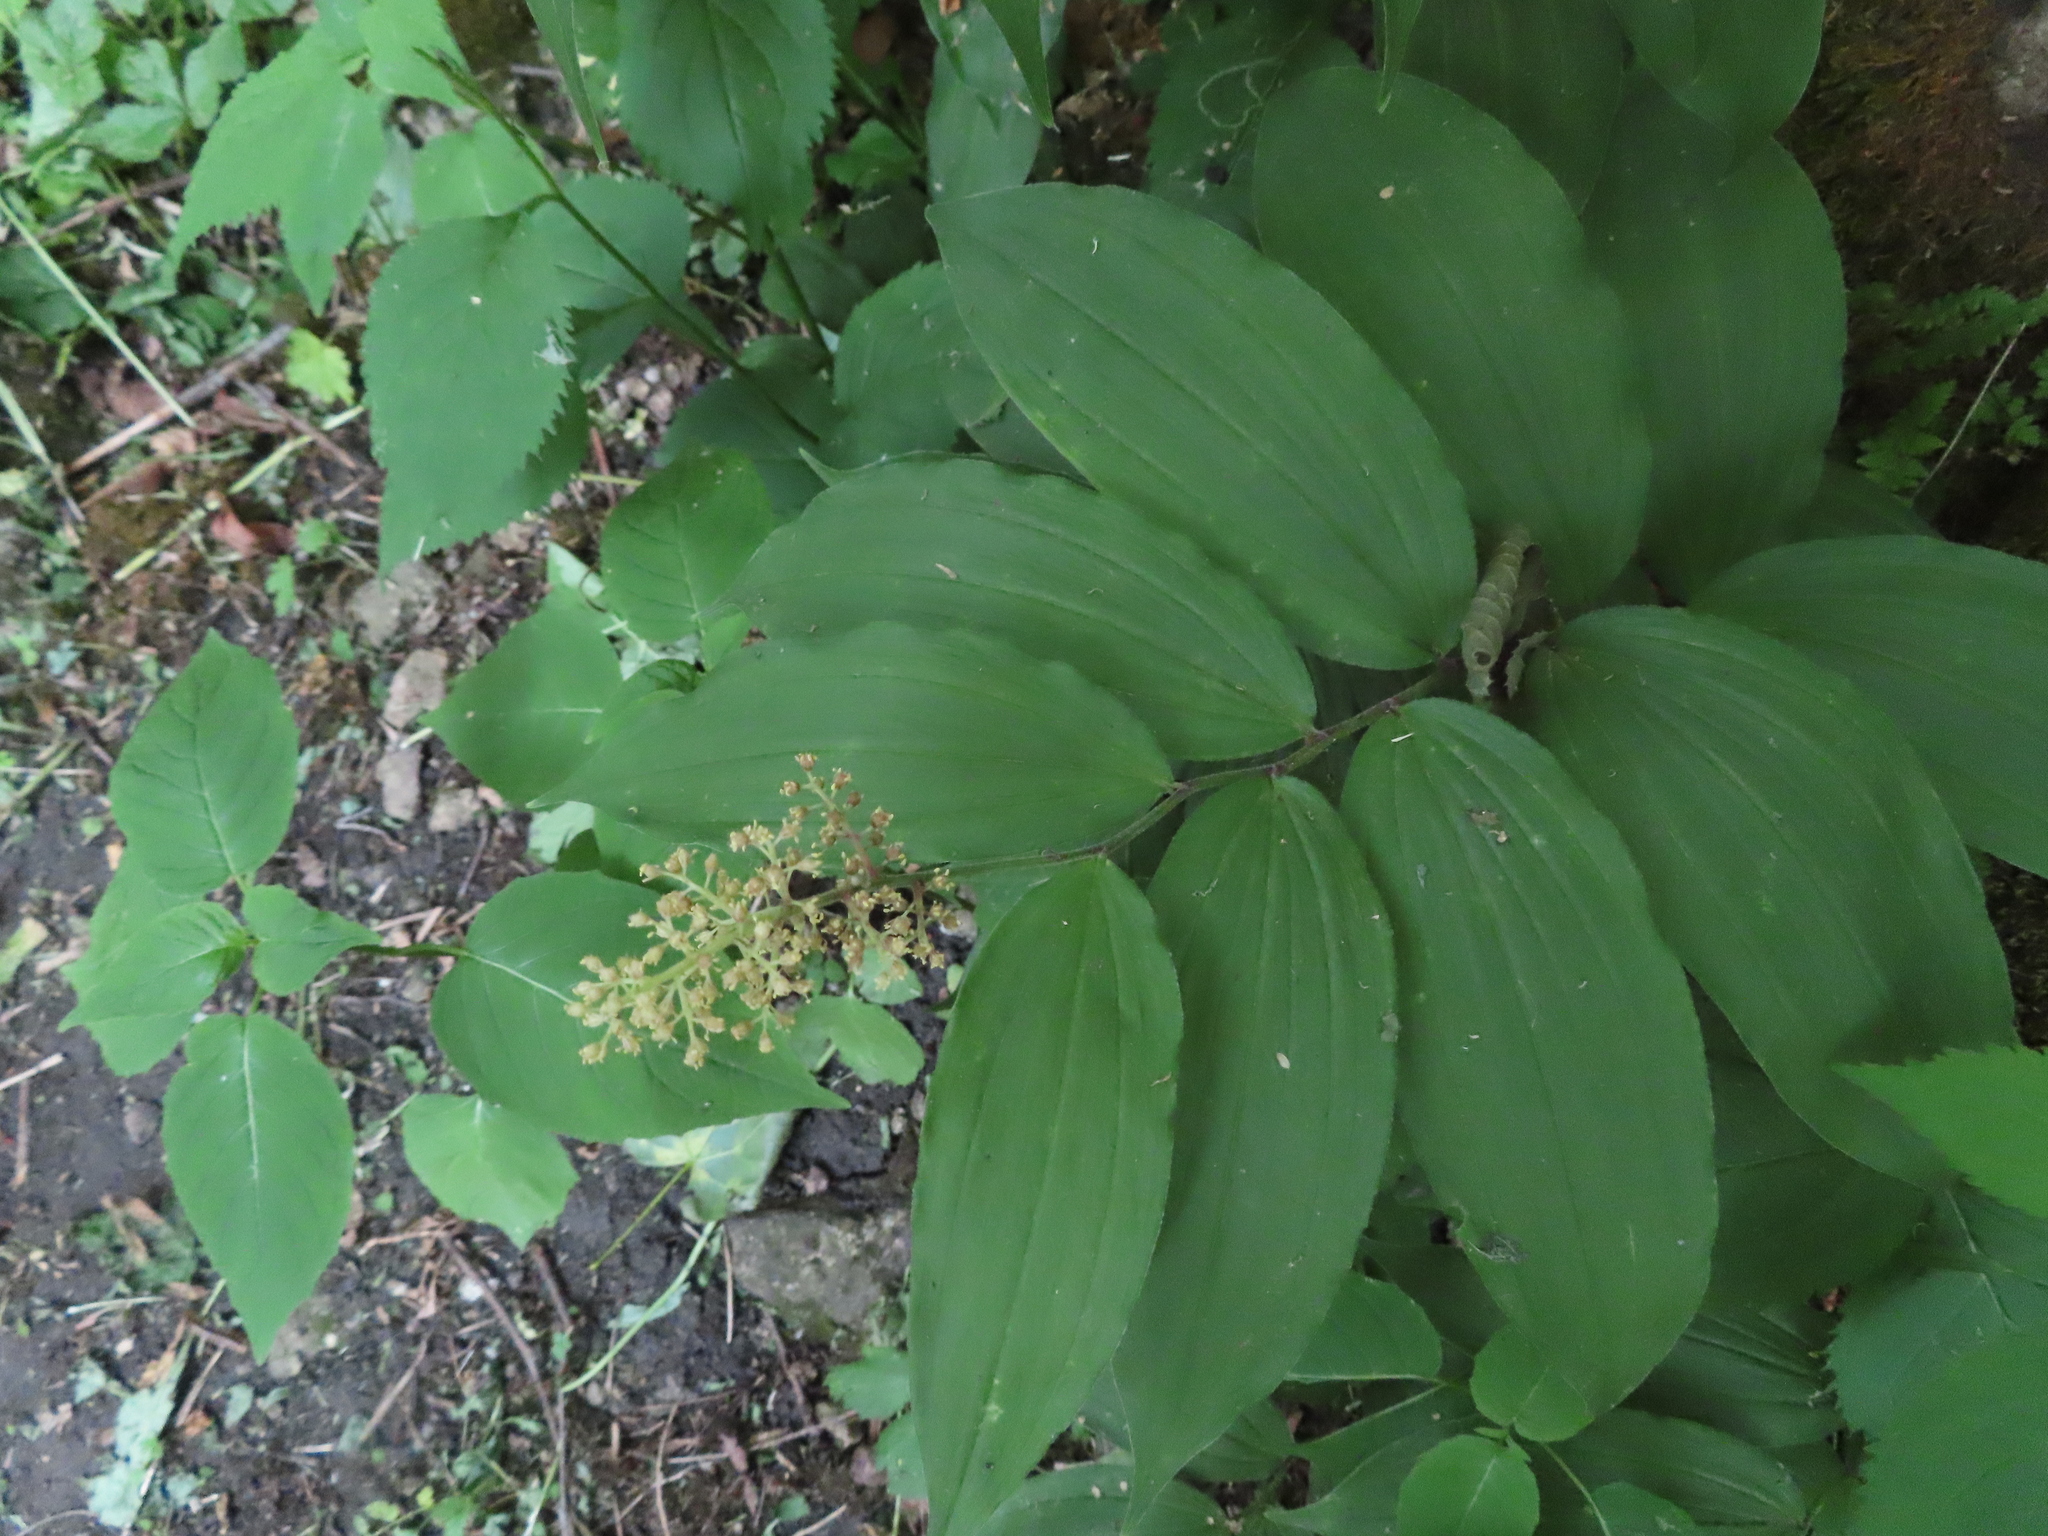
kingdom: Plantae
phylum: Tracheophyta
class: Liliopsida
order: Asparagales
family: Asparagaceae
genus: Maianthemum
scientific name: Maianthemum racemosum
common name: False spikenard
